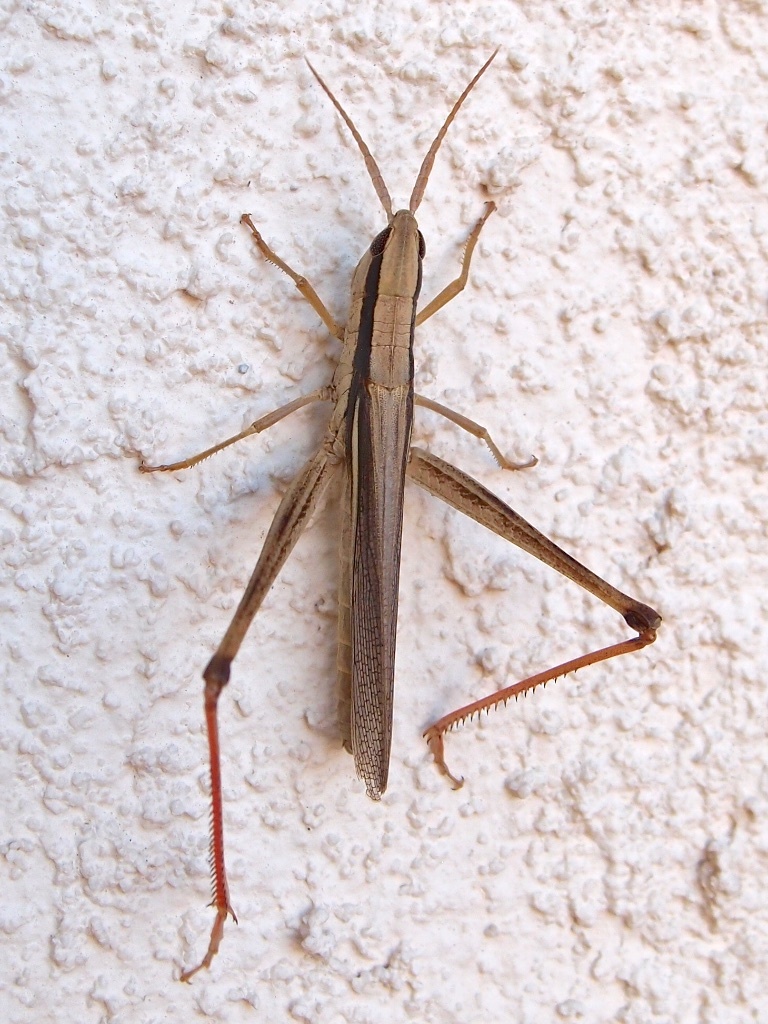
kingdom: Animalia
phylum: Arthropoda
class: Insecta
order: Orthoptera
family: Acrididae
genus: Mermiria
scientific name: Mermiria bivittata
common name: Two-striped mermiria grasshopper
